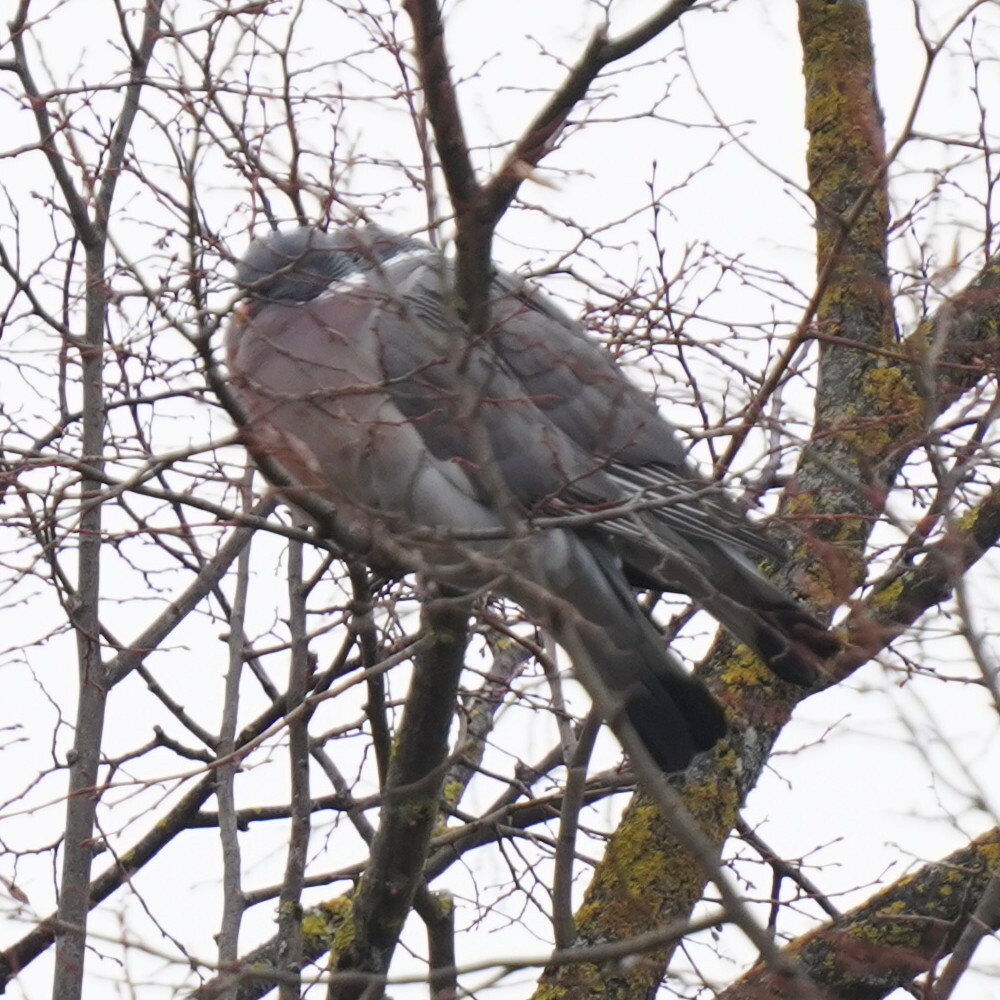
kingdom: Animalia
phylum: Chordata
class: Aves
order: Columbiformes
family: Columbidae
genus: Columba
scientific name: Columba palumbus
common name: Common wood pigeon
